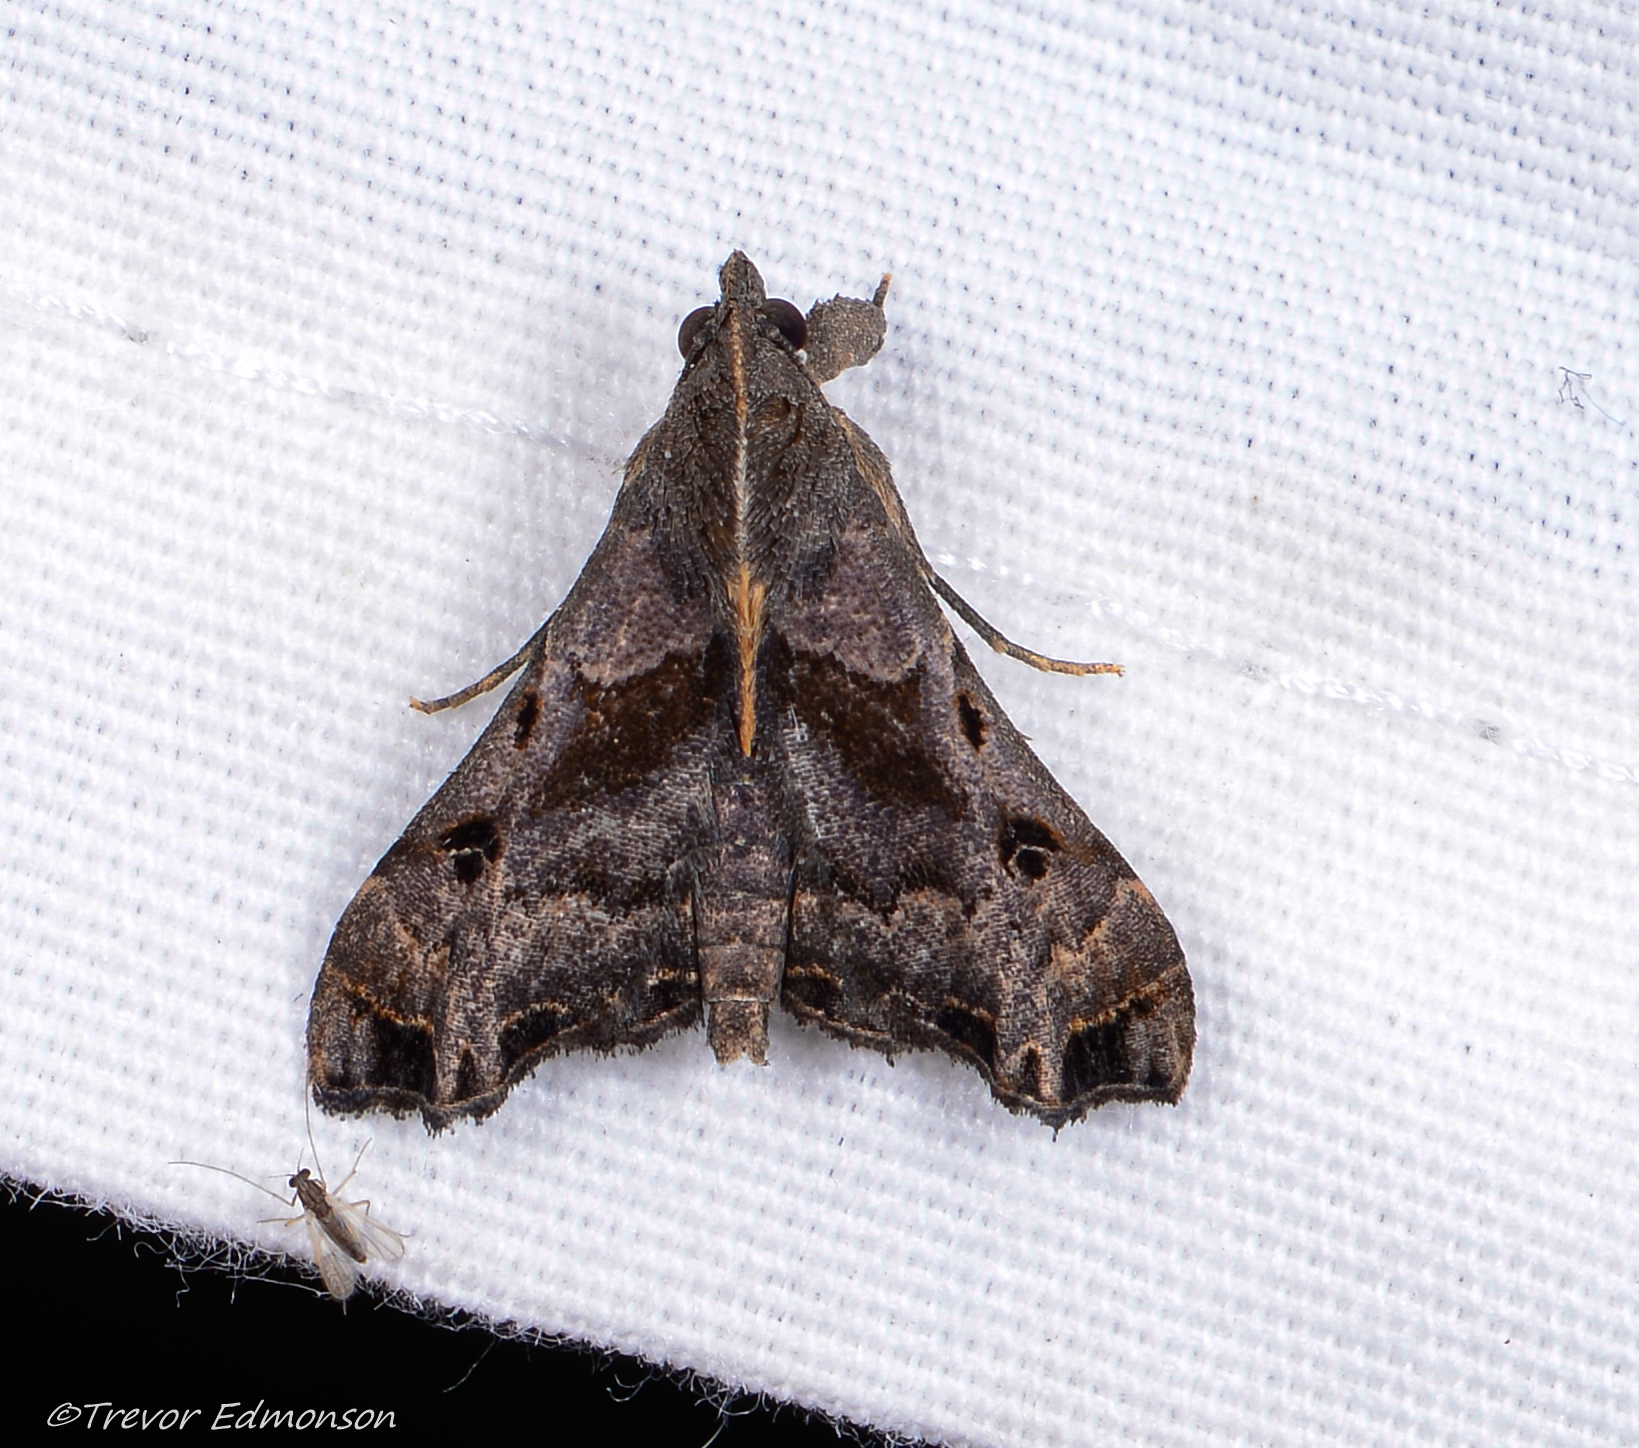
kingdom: Animalia
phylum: Arthropoda
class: Insecta
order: Lepidoptera
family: Erebidae
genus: Palthis
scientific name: Palthis asopialis
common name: Faint-spotted palthis moth
